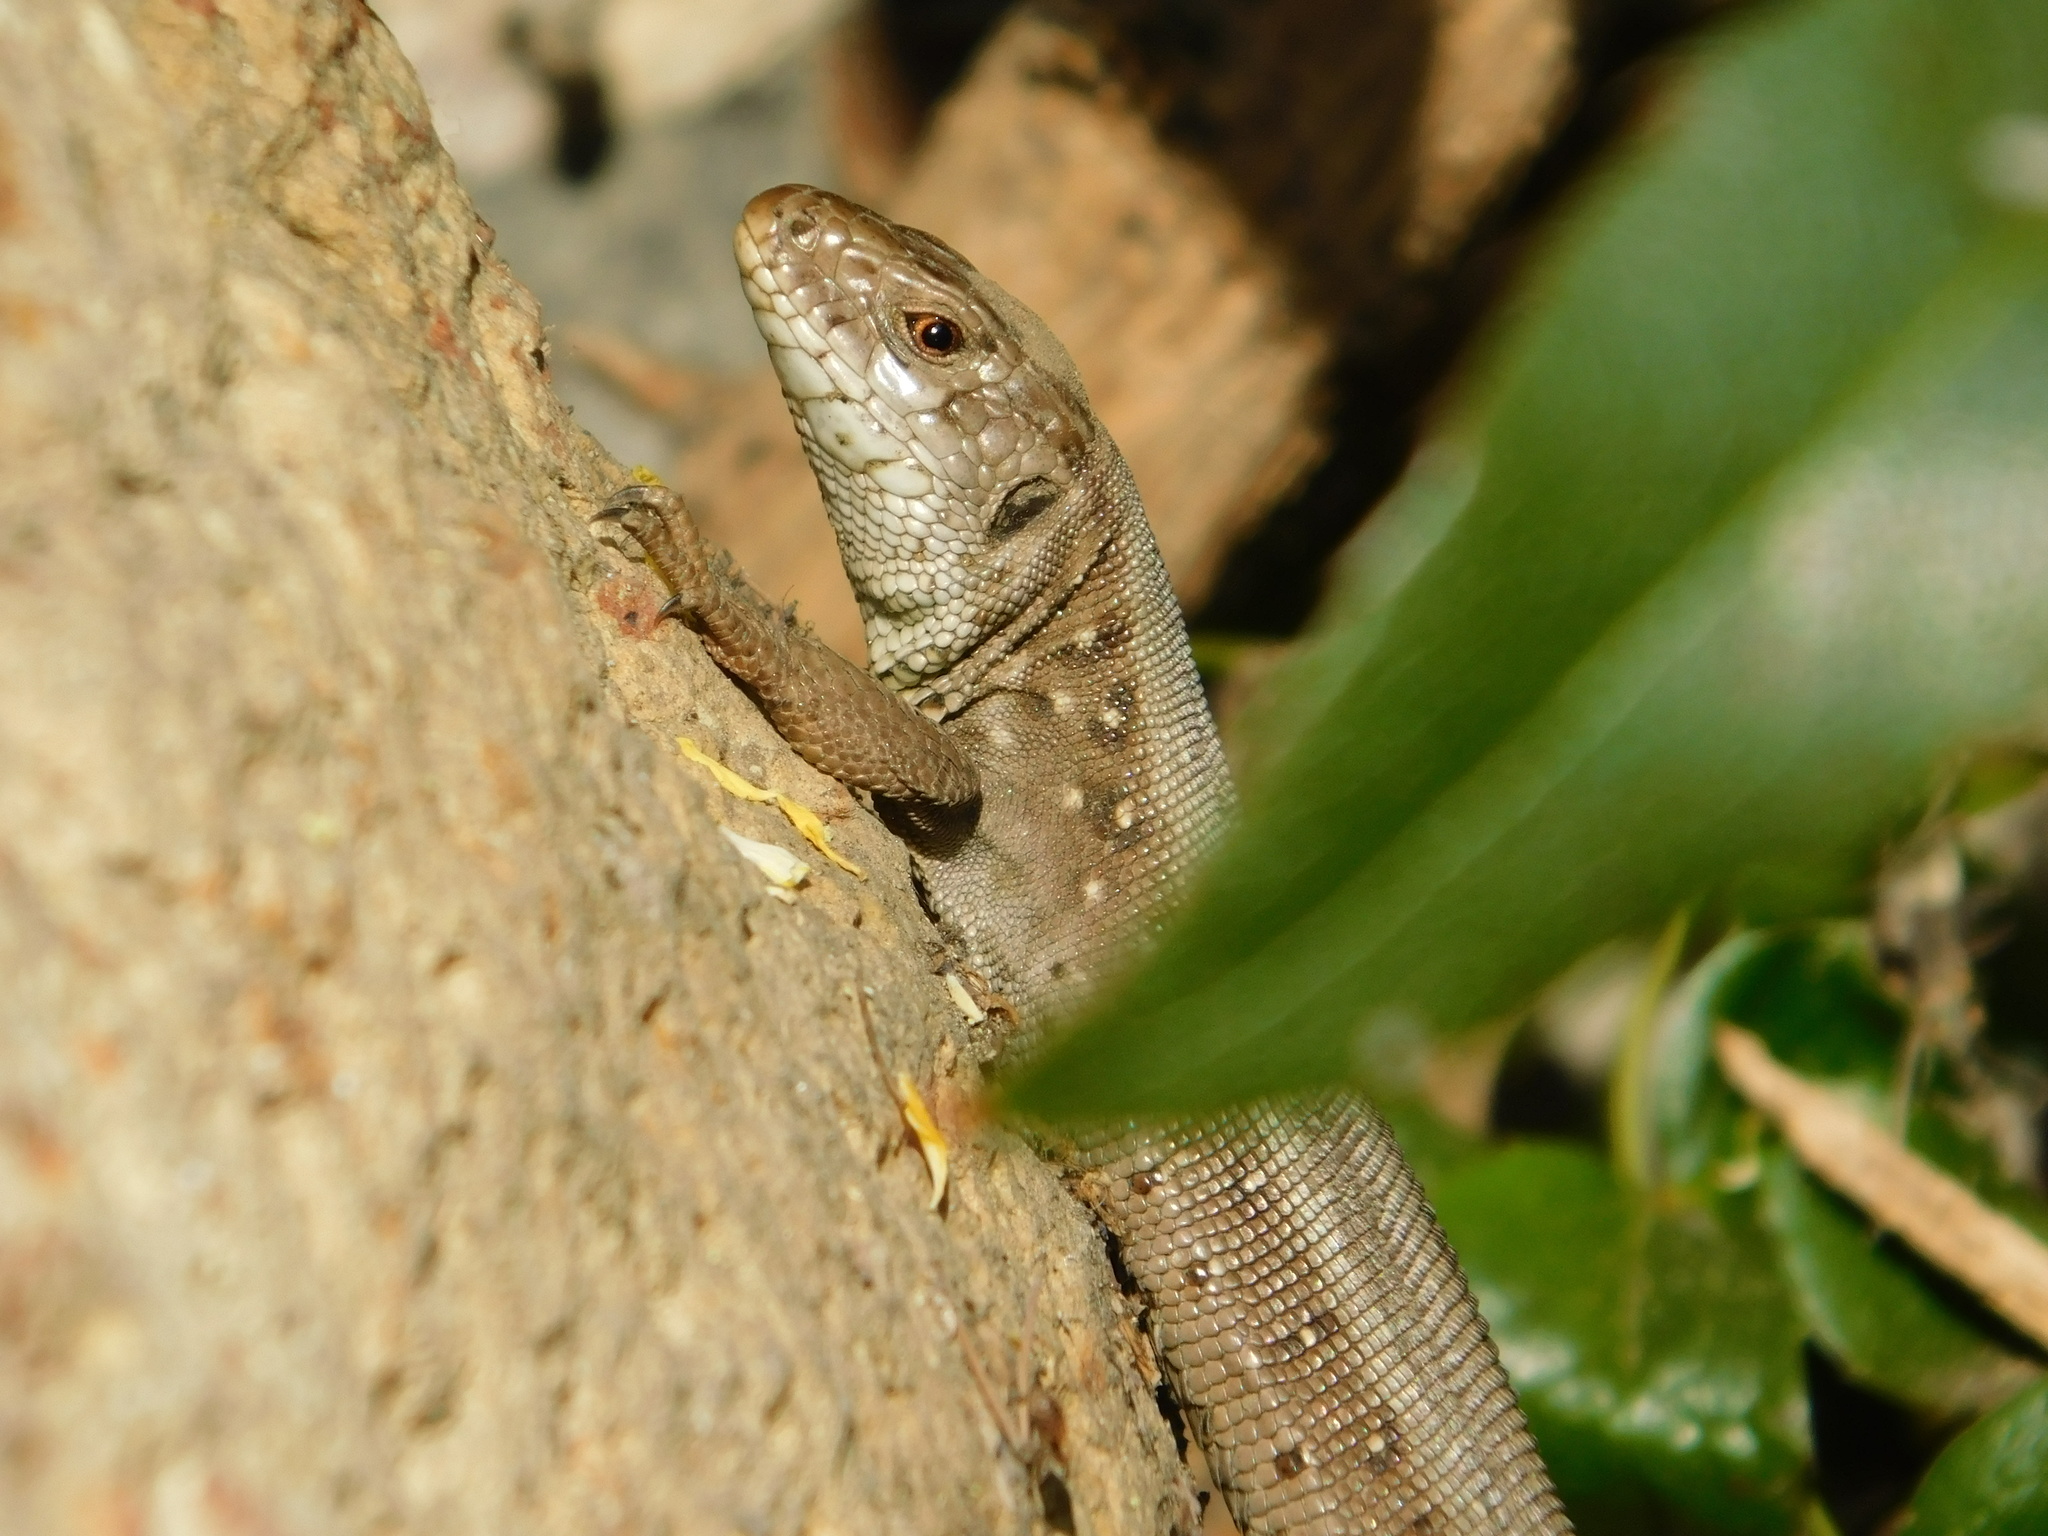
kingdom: Animalia
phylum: Chordata
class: Squamata
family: Lacertidae
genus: Lacerta
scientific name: Lacerta agilis
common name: Sand lizard
